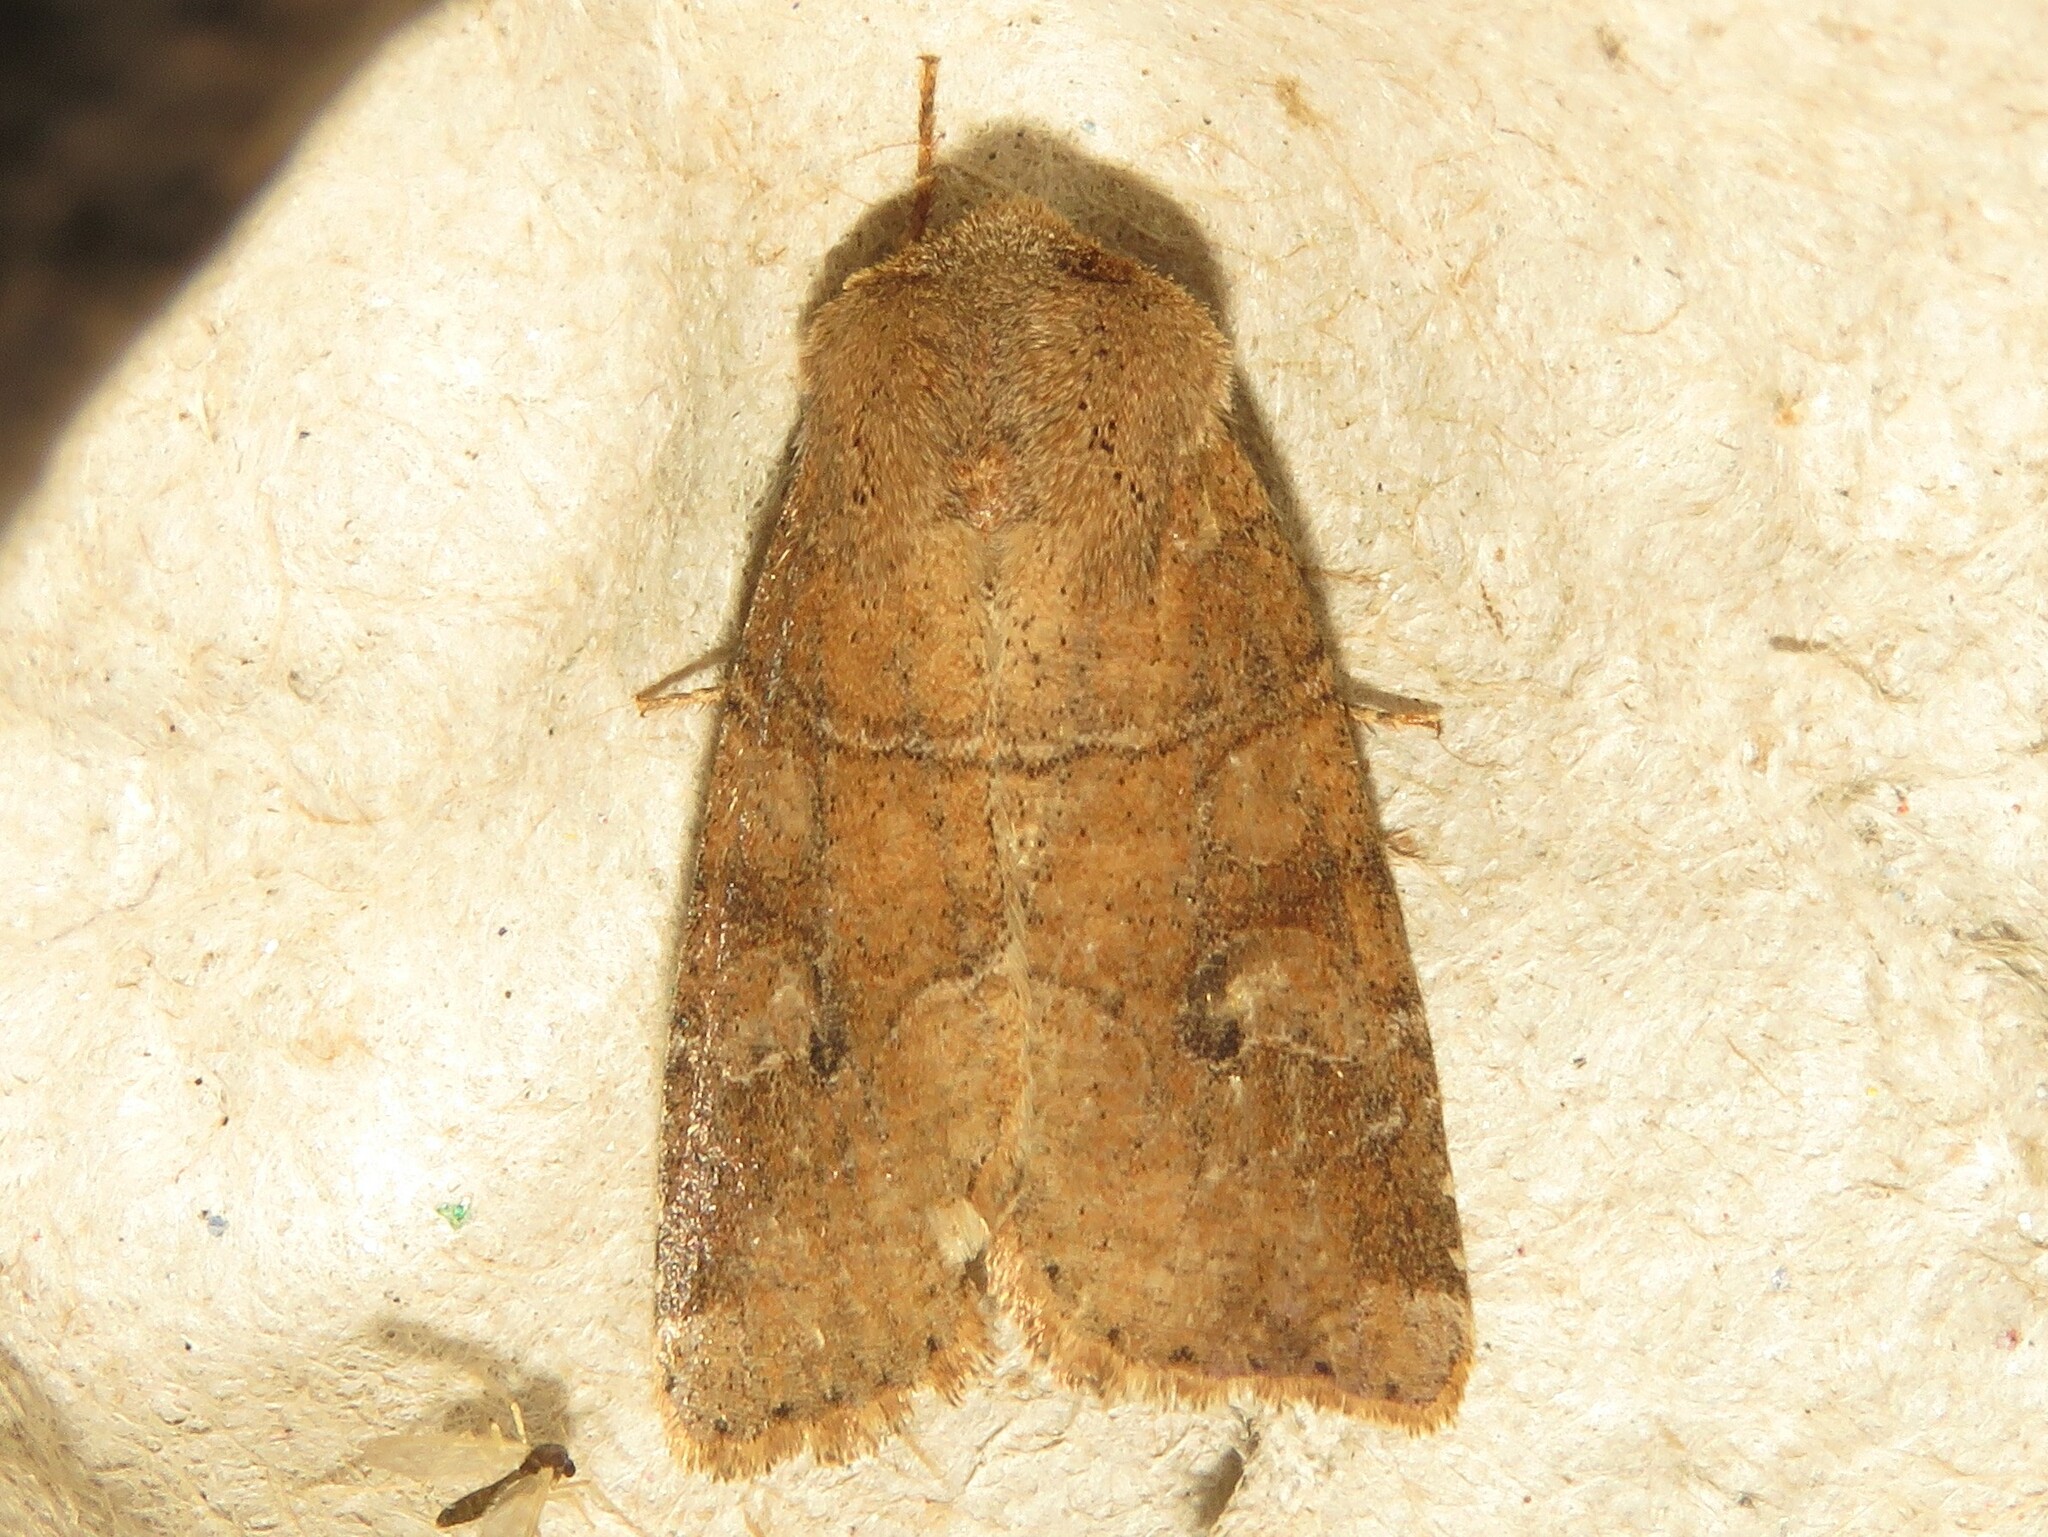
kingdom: Animalia
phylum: Arthropoda
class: Insecta
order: Lepidoptera
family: Noctuidae
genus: Crocigrapha
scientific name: Crocigrapha normani
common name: Norman's quaker
